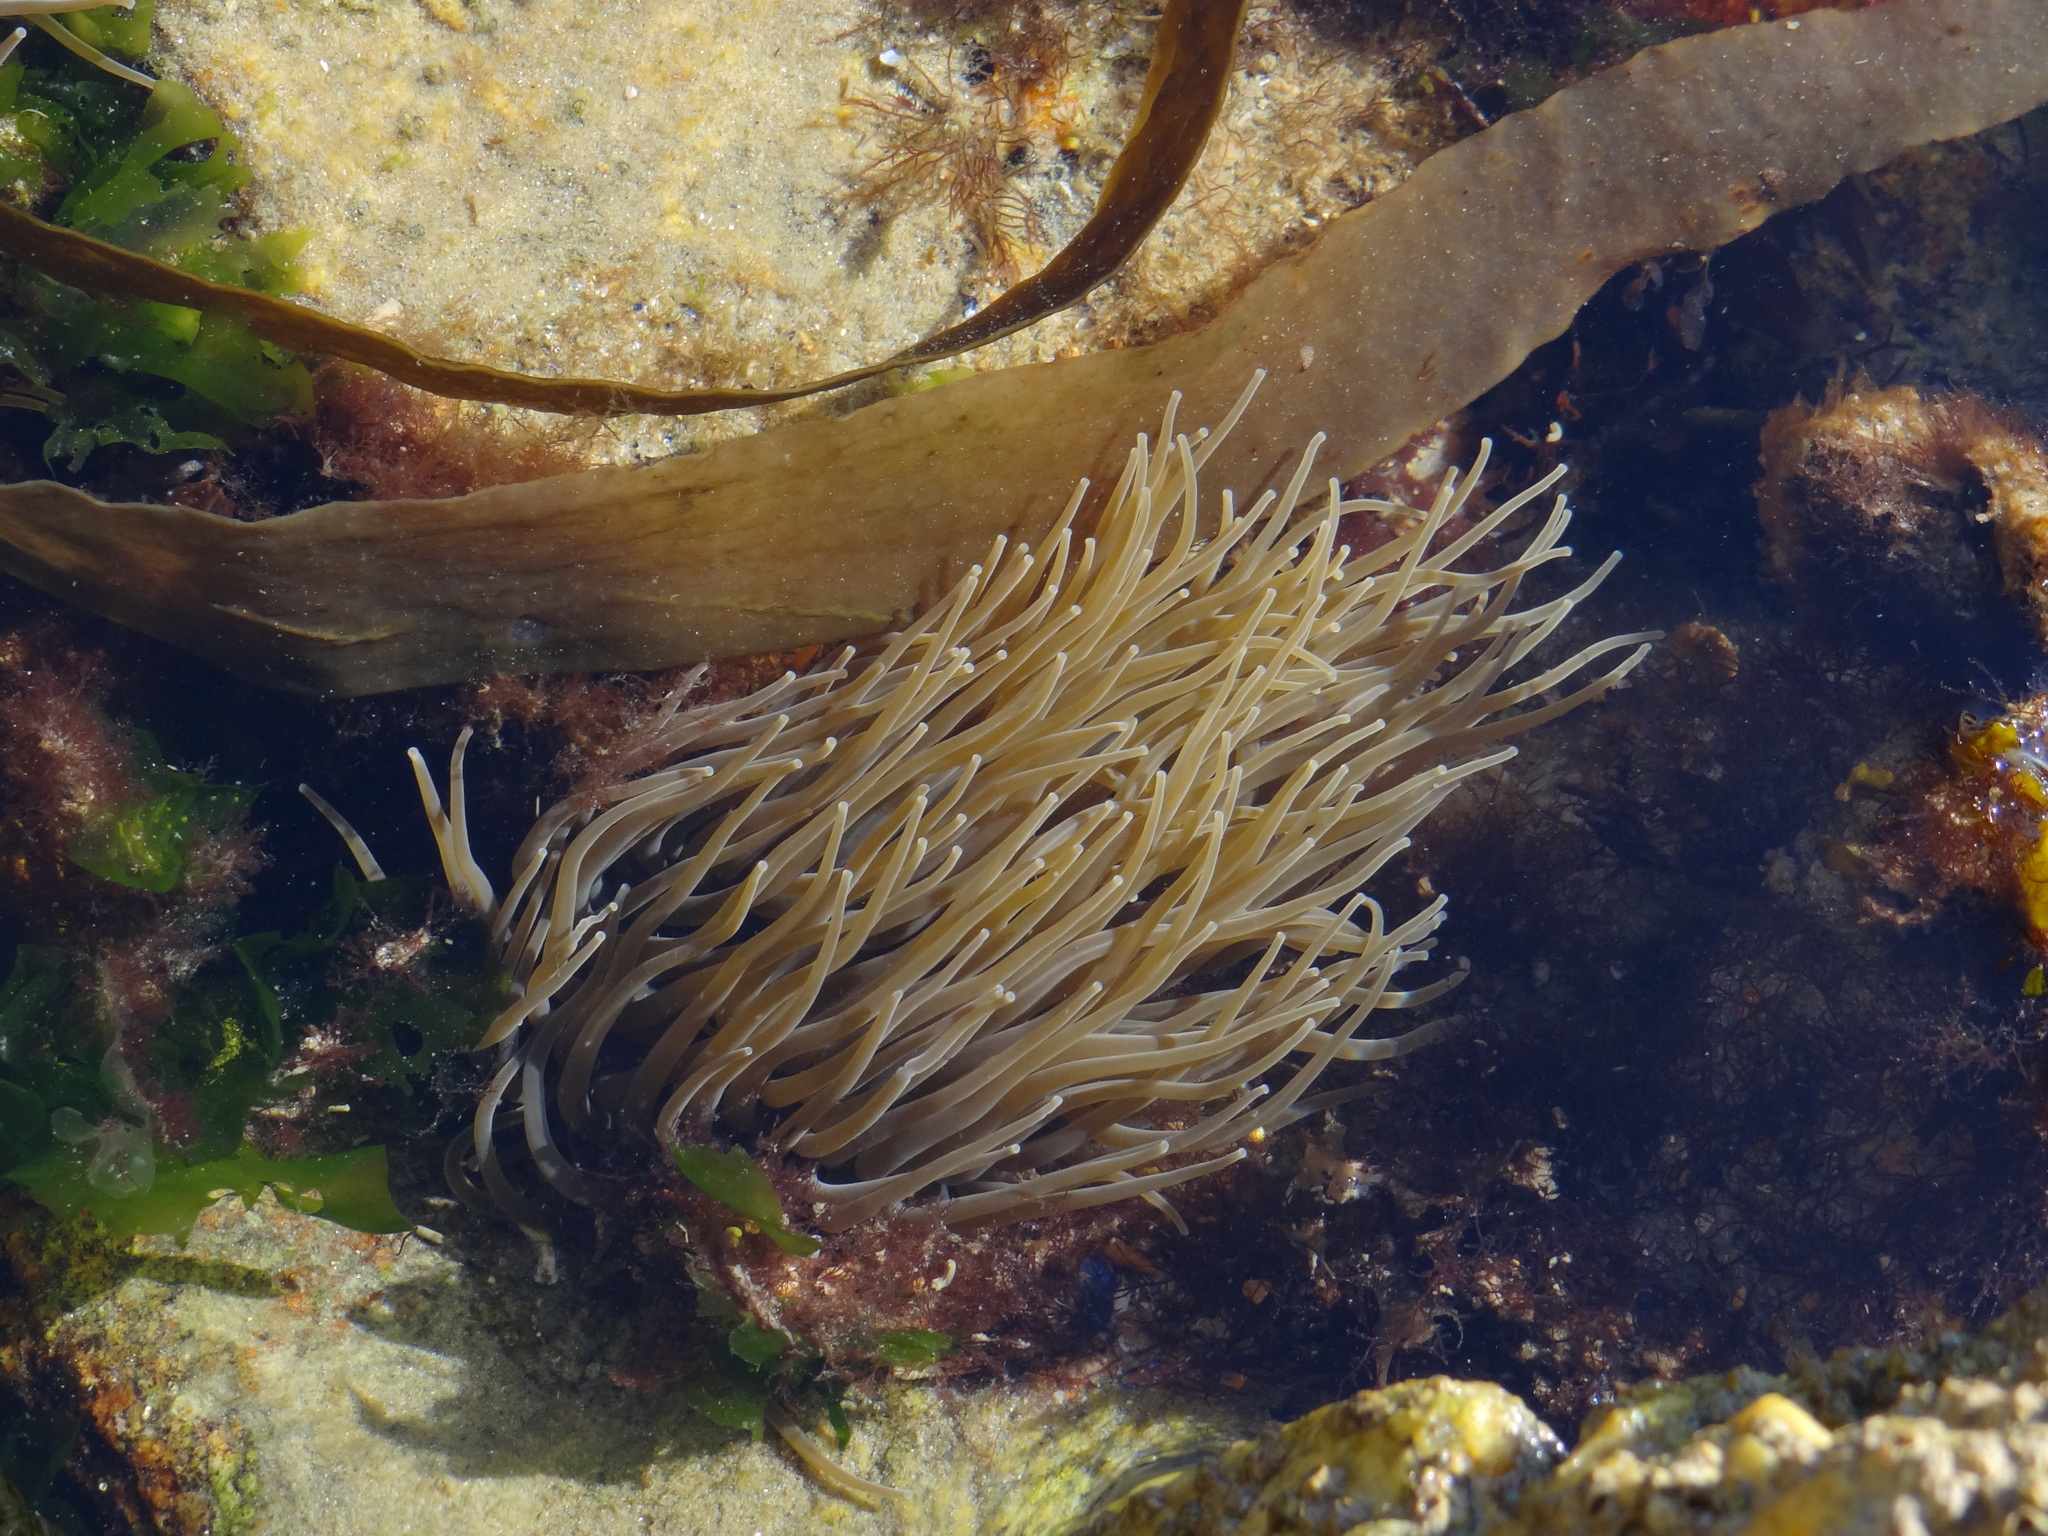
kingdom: Animalia
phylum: Cnidaria
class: Anthozoa
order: Actiniaria
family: Actiniidae
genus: Anemonia
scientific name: Anemonia viridis
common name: Snakelocks anemone
